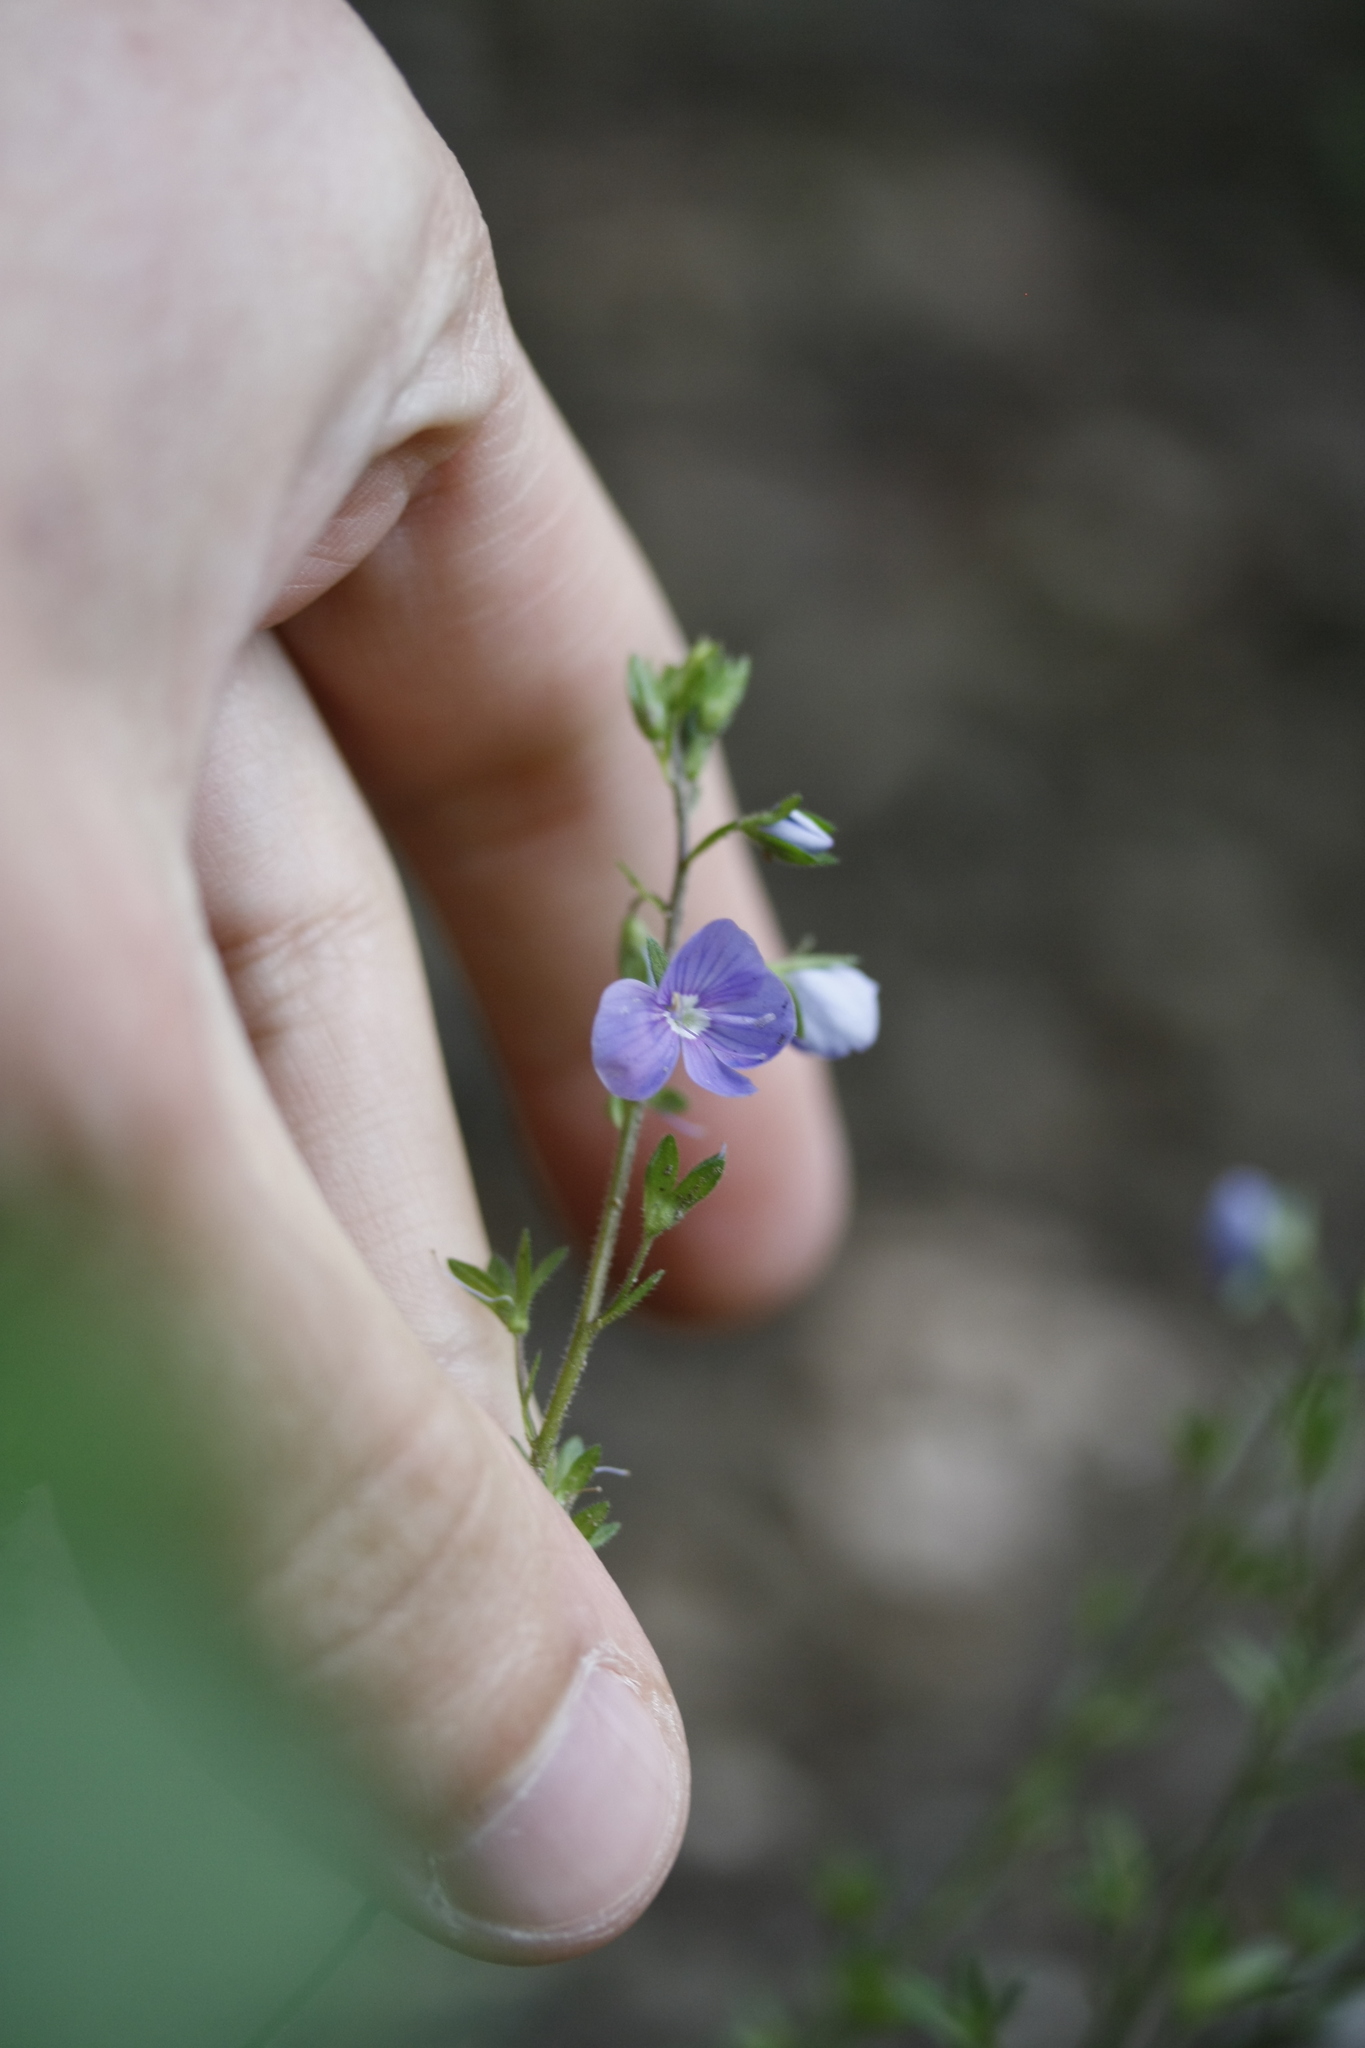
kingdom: Plantae
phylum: Tracheophyta
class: Magnoliopsida
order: Lamiales
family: Plantaginaceae
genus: Veronica
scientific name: Veronica chamaedrys
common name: Germander speedwell
